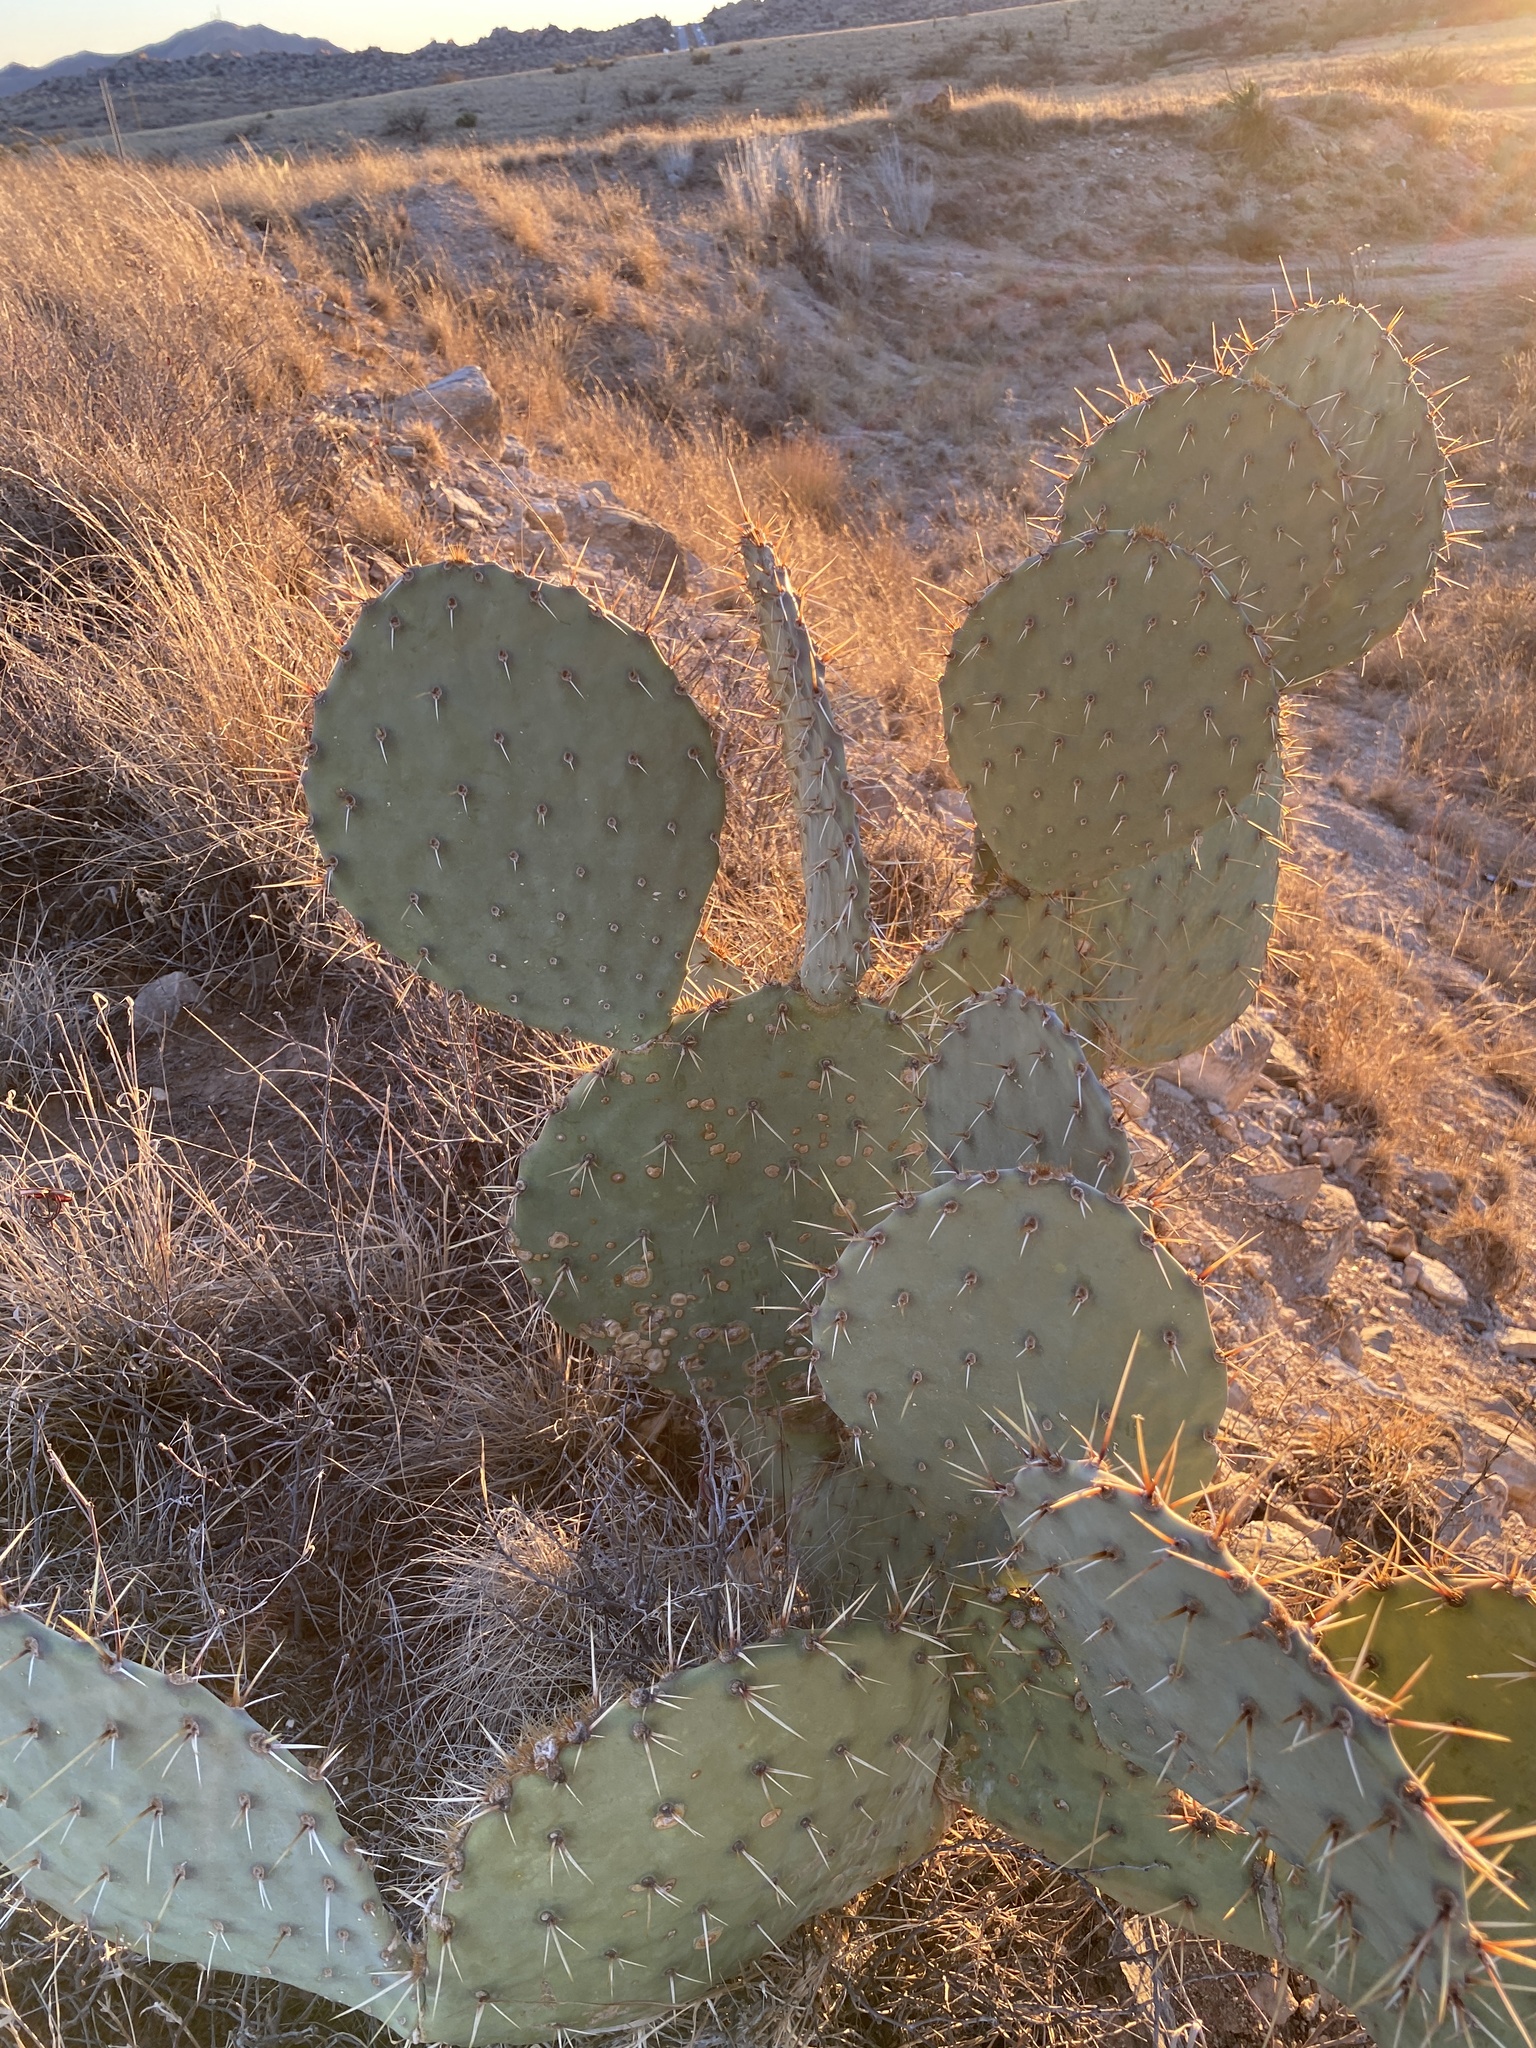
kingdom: Plantae
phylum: Tracheophyta
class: Magnoliopsida
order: Caryophyllales
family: Cactaceae
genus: Opuntia
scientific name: Opuntia engelmannii
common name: Cactus-apple
